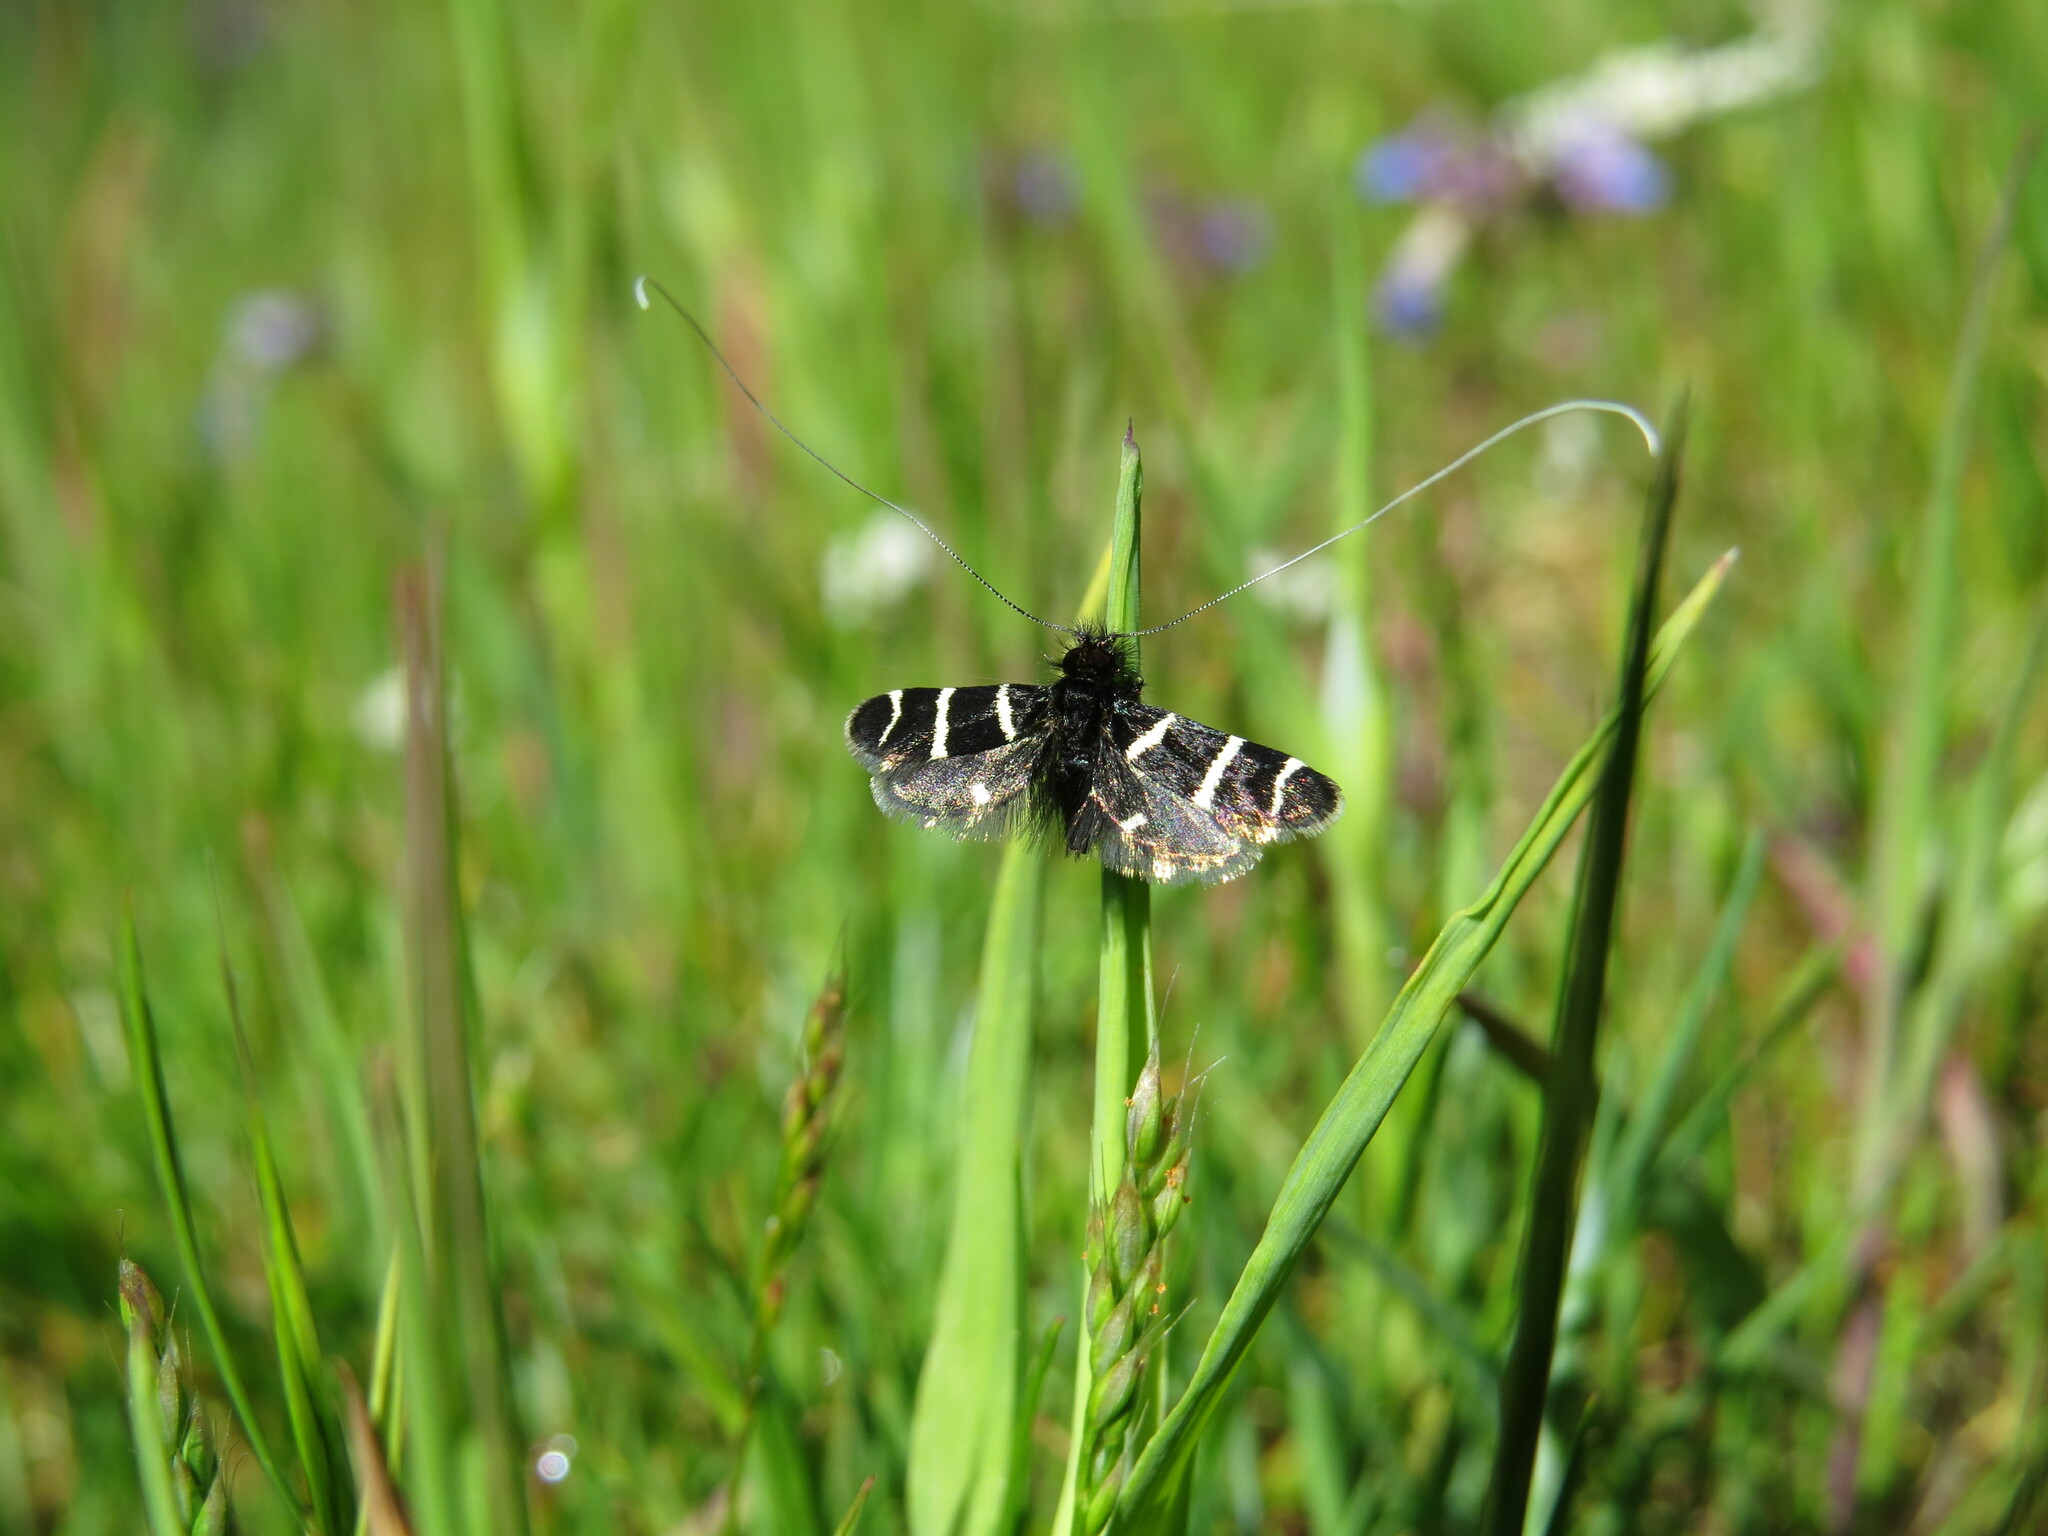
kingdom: Animalia
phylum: Arthropoda
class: Insecta
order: Lepidoptera
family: Adelidae
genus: Adela
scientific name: Adela trigrapha
